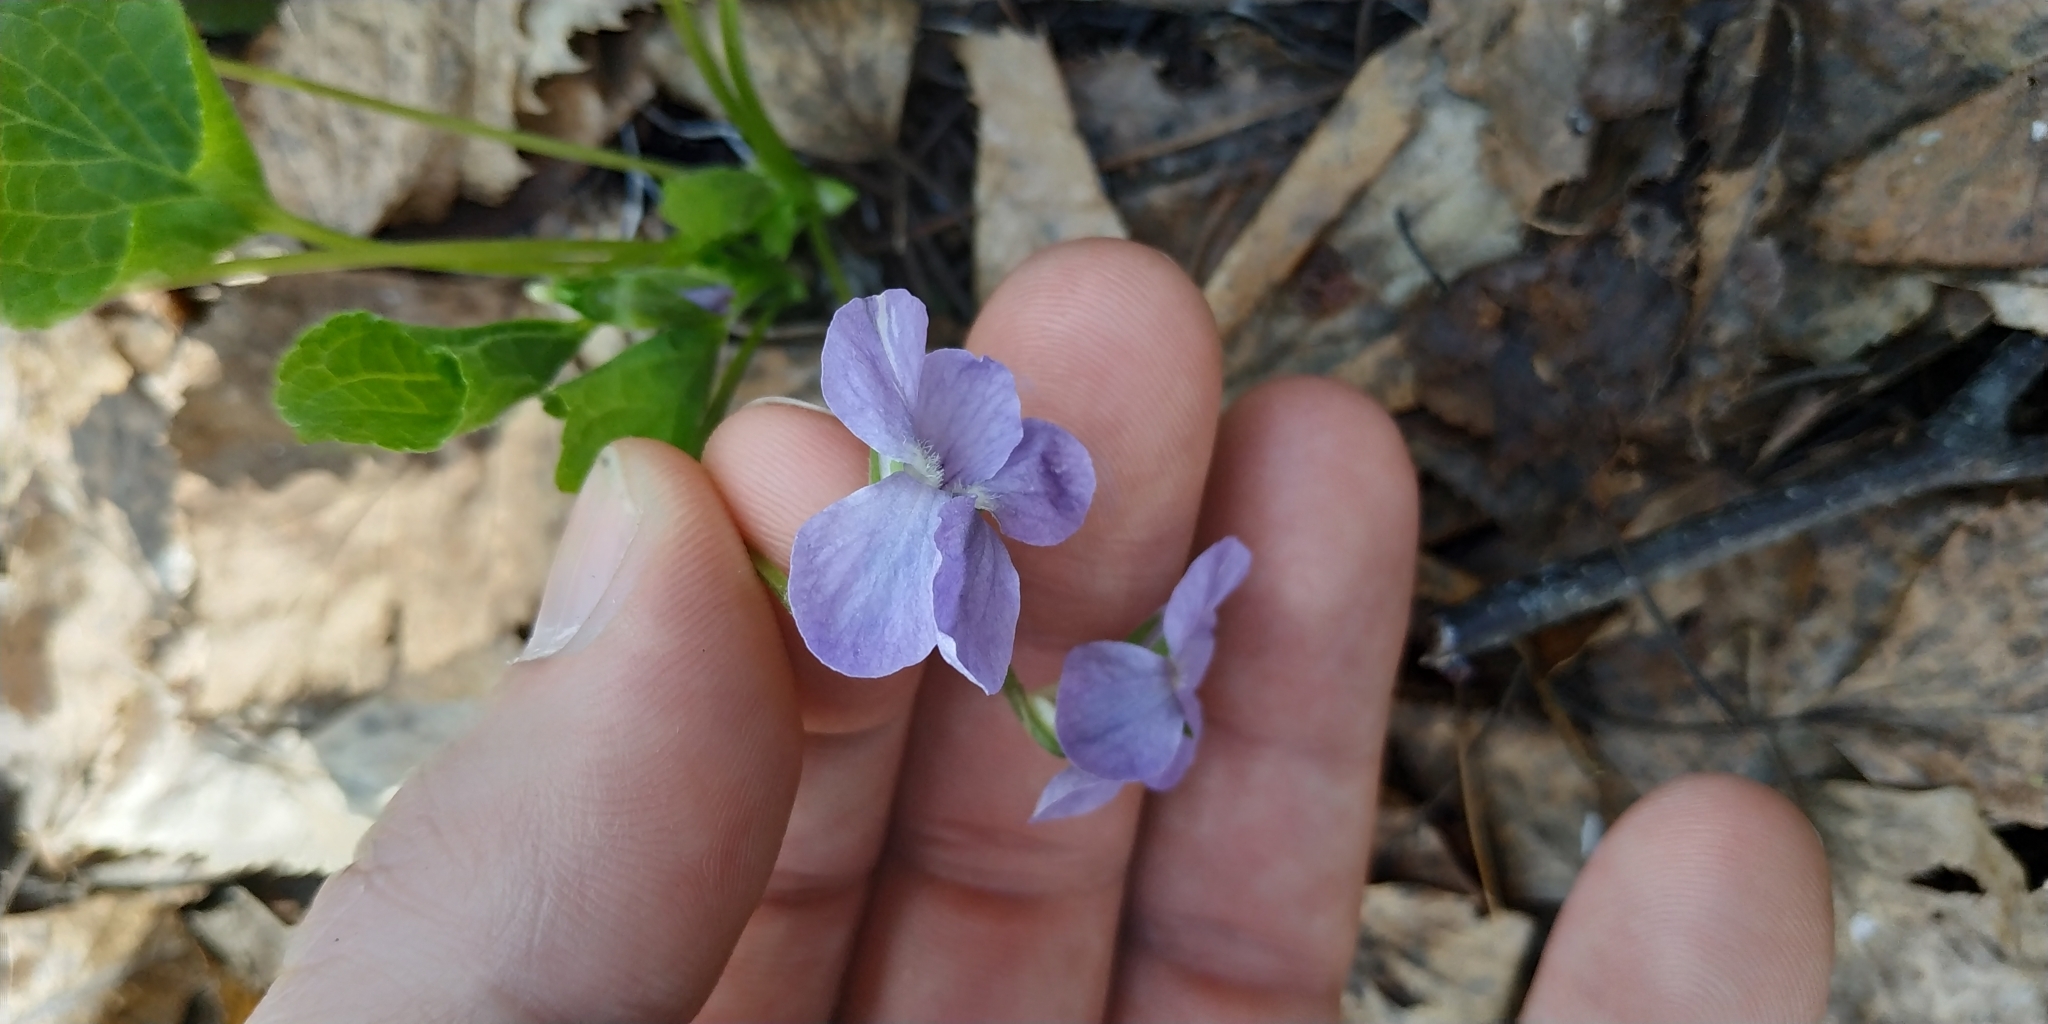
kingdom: Plantae
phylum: Tracheophyta
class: Magnoliopsida
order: Malpighiales
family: Violaceae
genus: Viola
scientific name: Viola mirabilis
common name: Wonder violet
